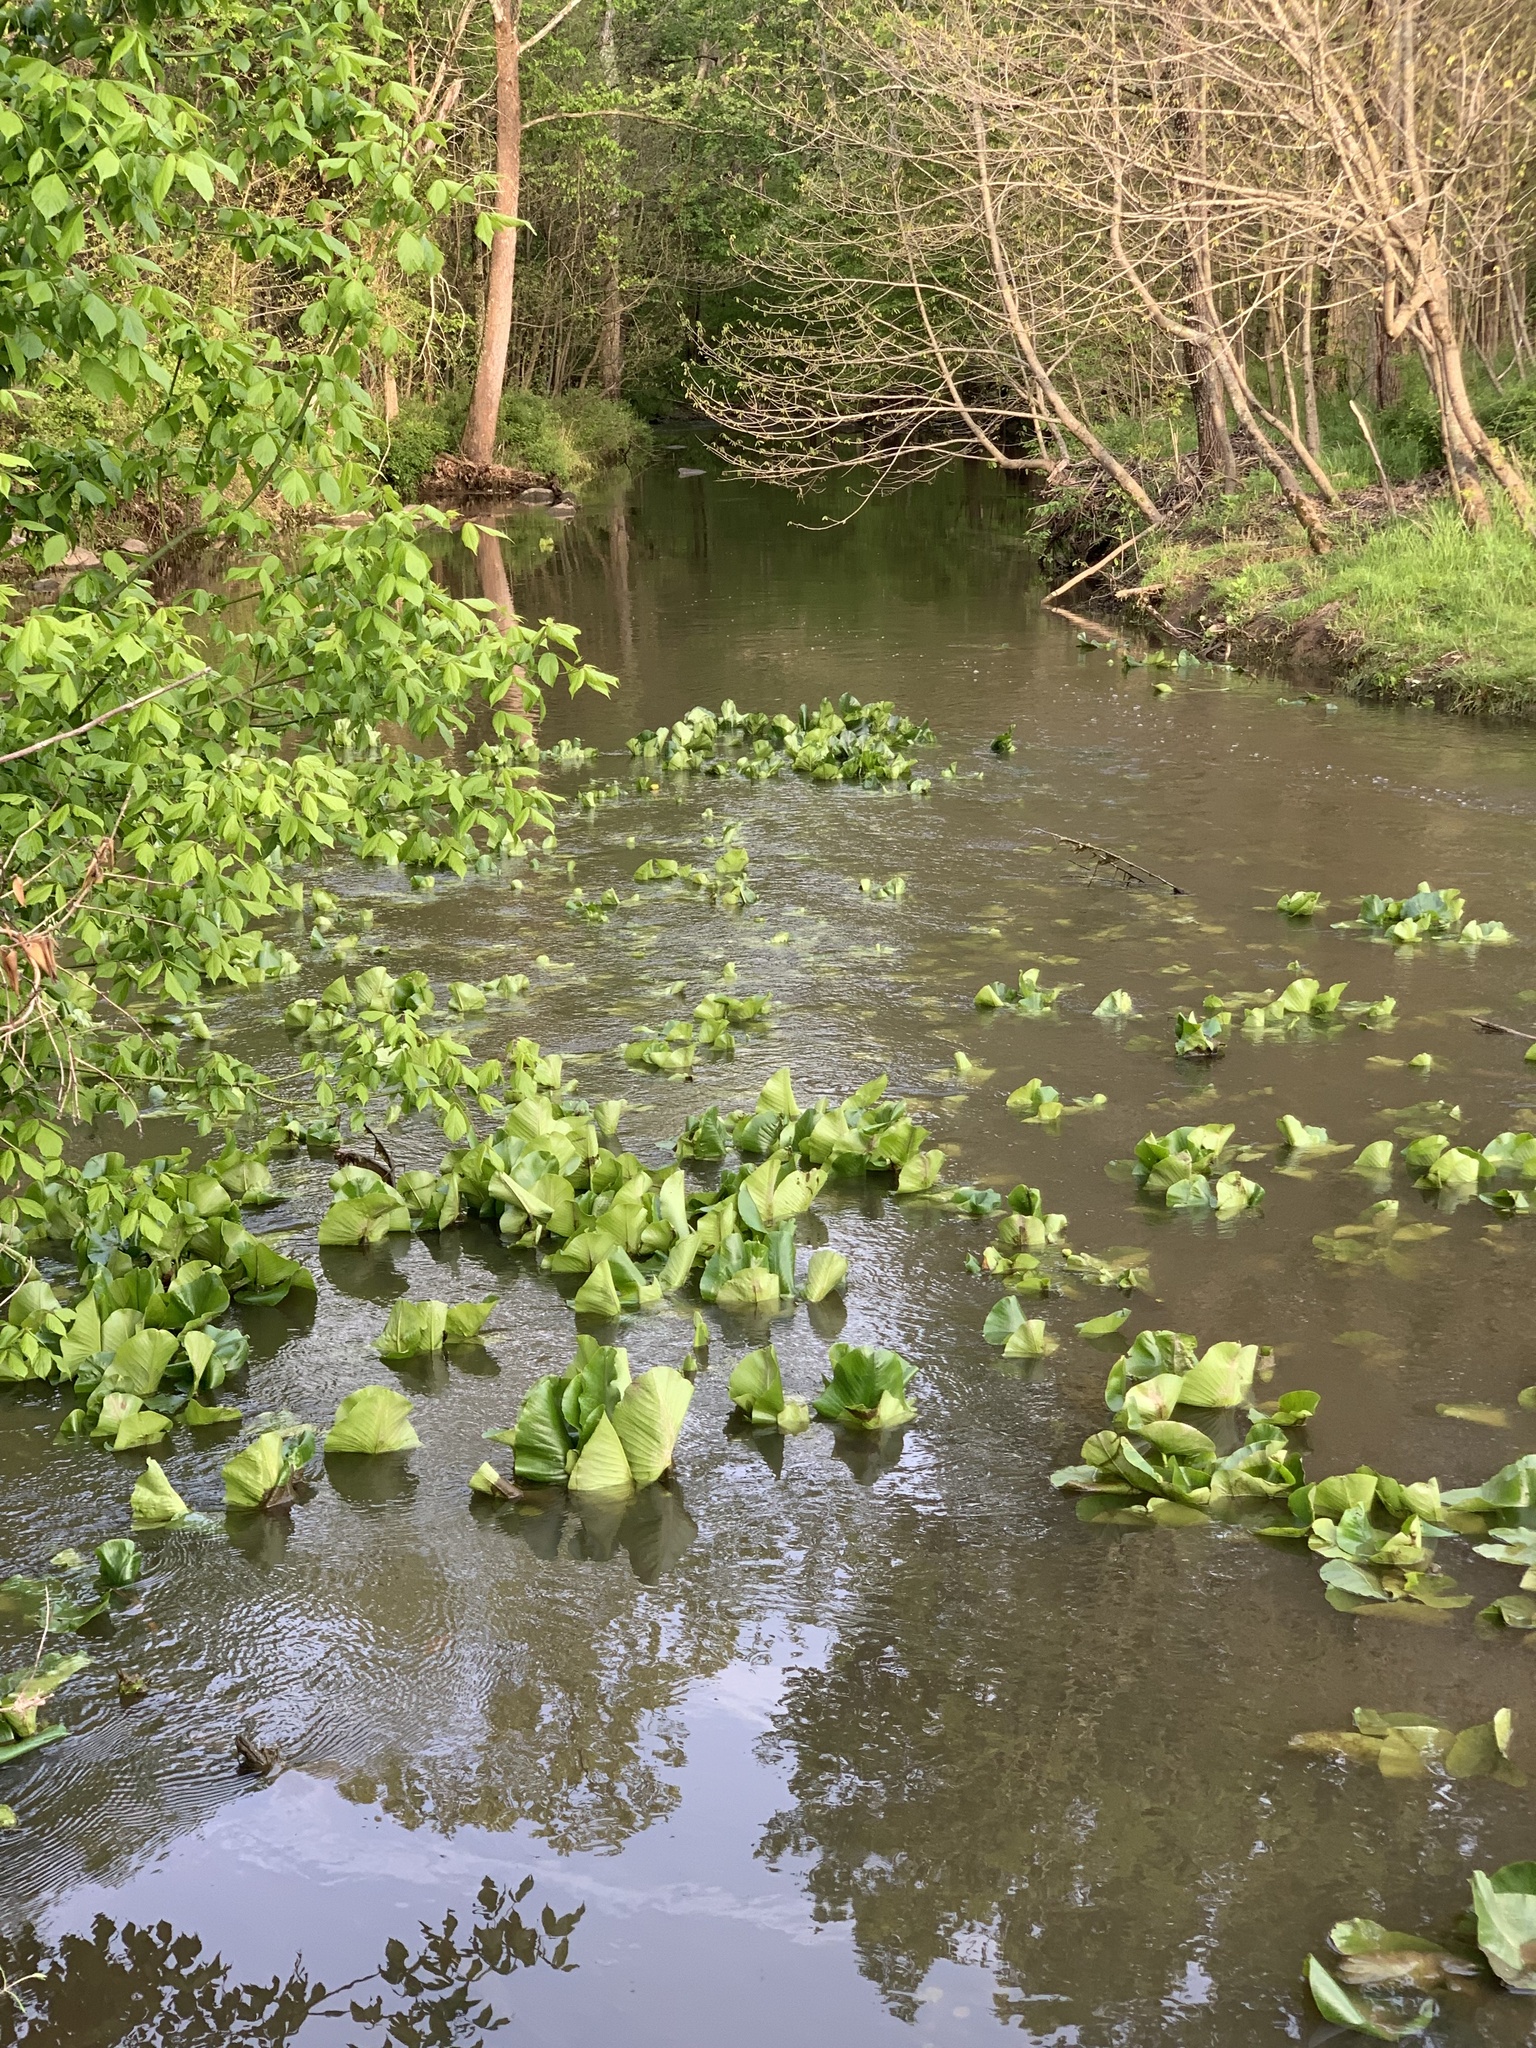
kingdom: Plantae
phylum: Tracheophyta
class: Magnoliopsida
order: Nymphaeales
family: Nymphaeaceae
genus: Nuphar
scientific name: Nuphar advena
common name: Spatter-dock
